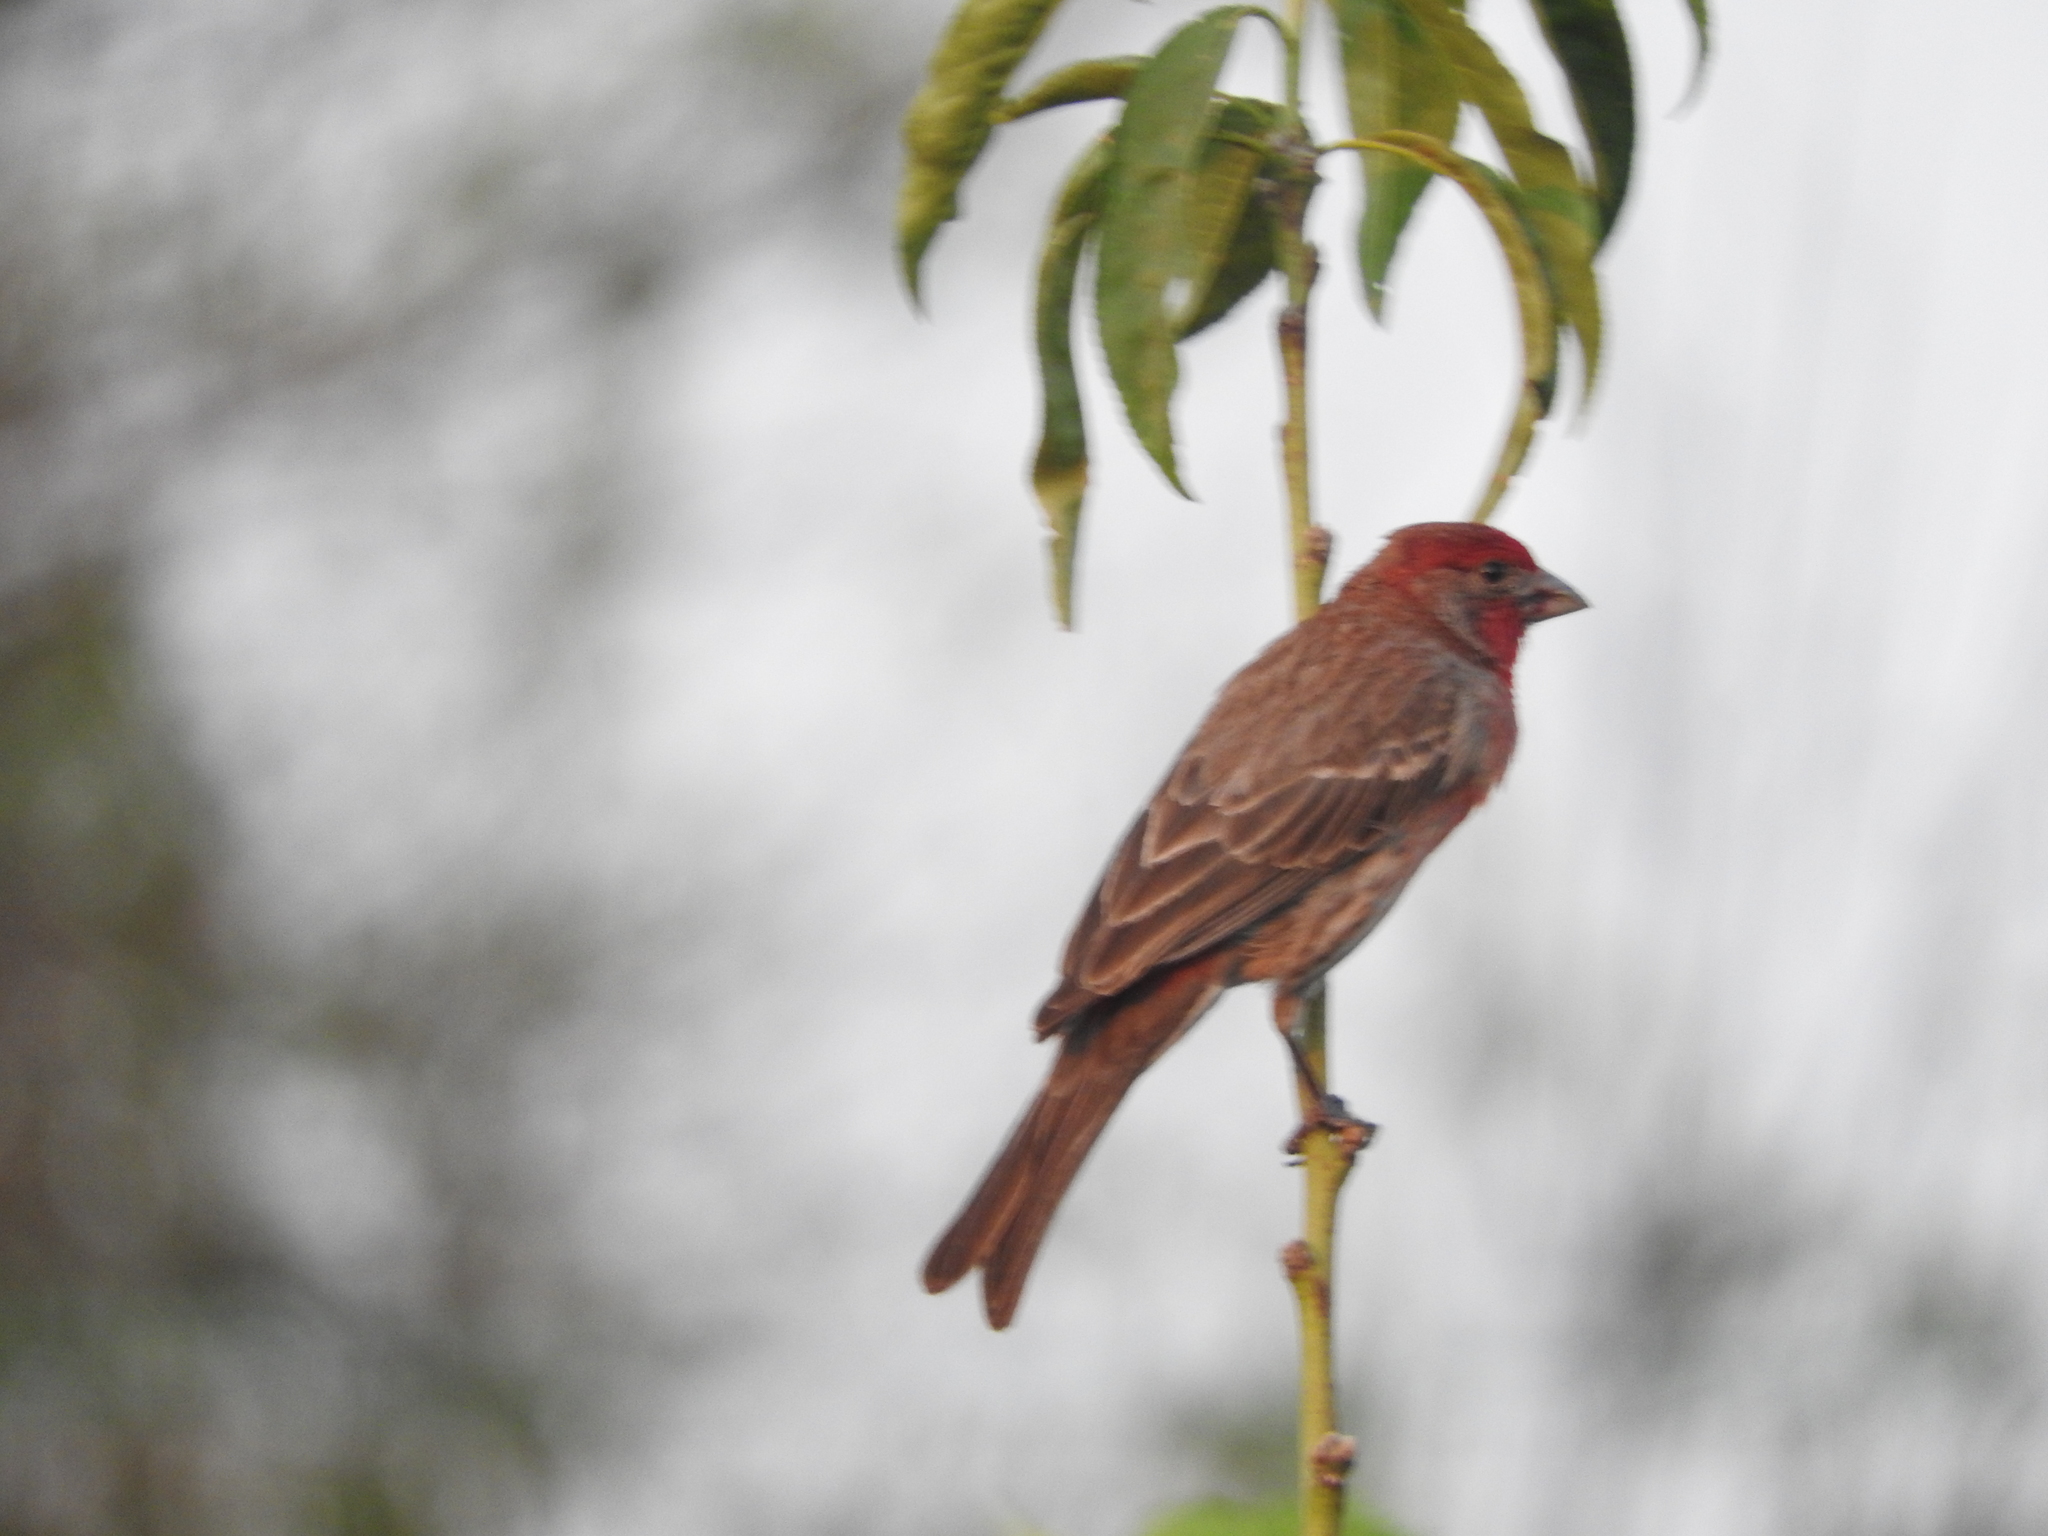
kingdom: Animalia
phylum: Chordata
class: Aves
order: Passeriformes
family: Fringillidae
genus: Haemorhous
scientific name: Haemorhous mexicanus
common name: House finch
